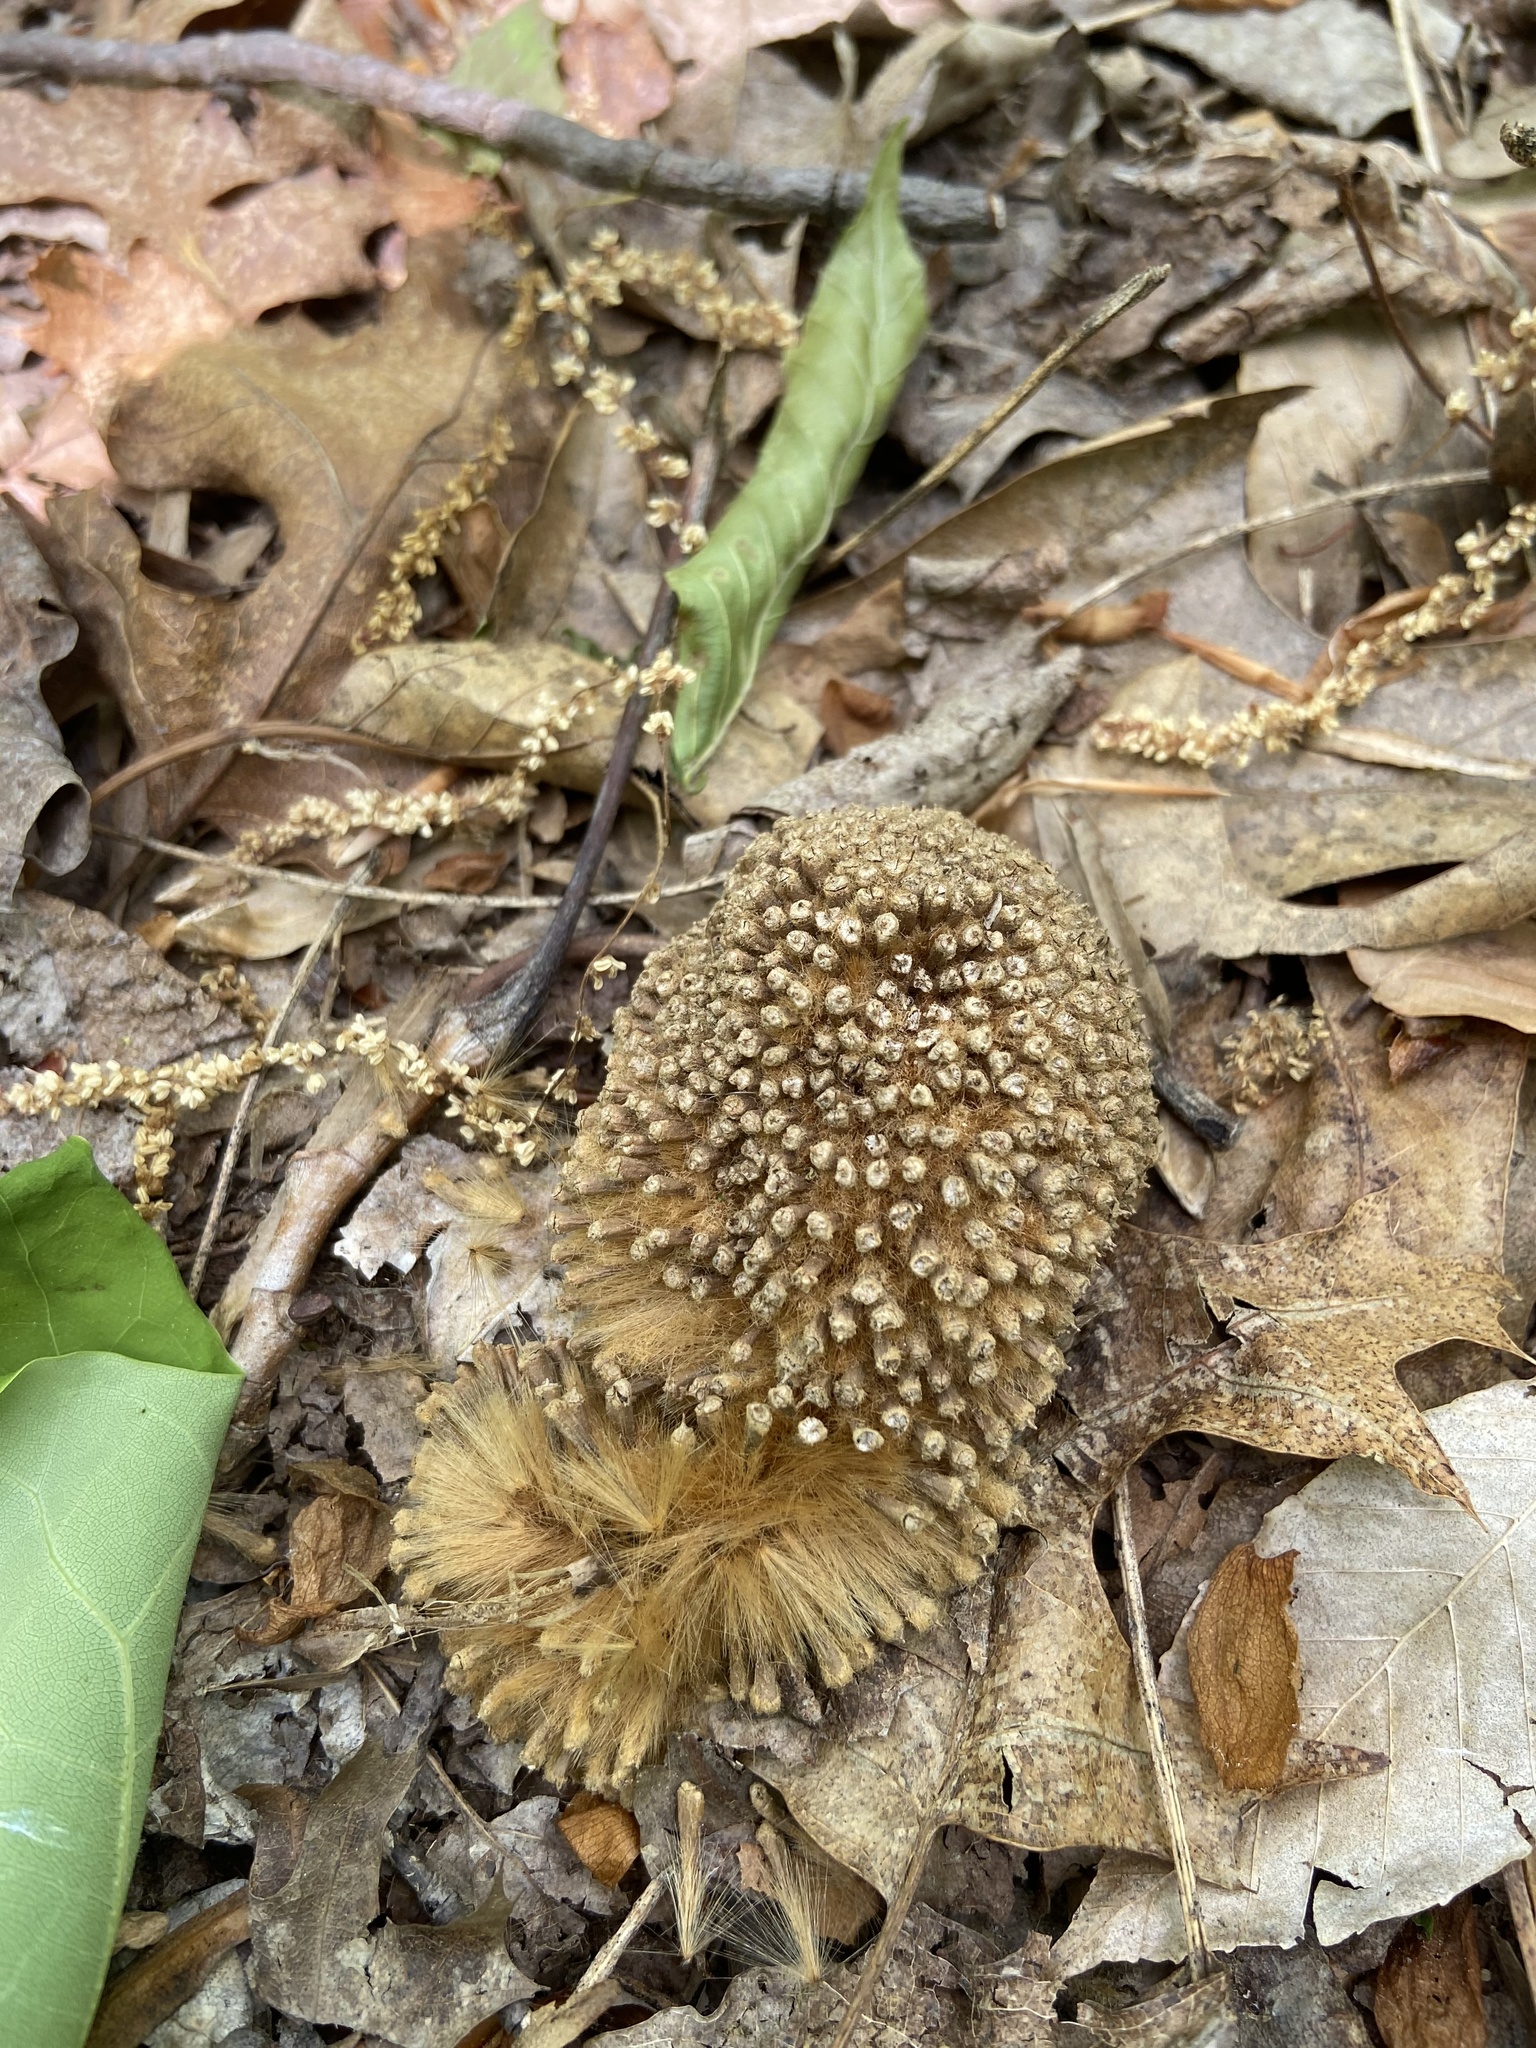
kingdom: Plantae
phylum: Tracheophyta
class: Magnoliopsida
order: Proteales
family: Platanaceae
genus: Platanus
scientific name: Platanus occidentalis
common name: American sycamore
